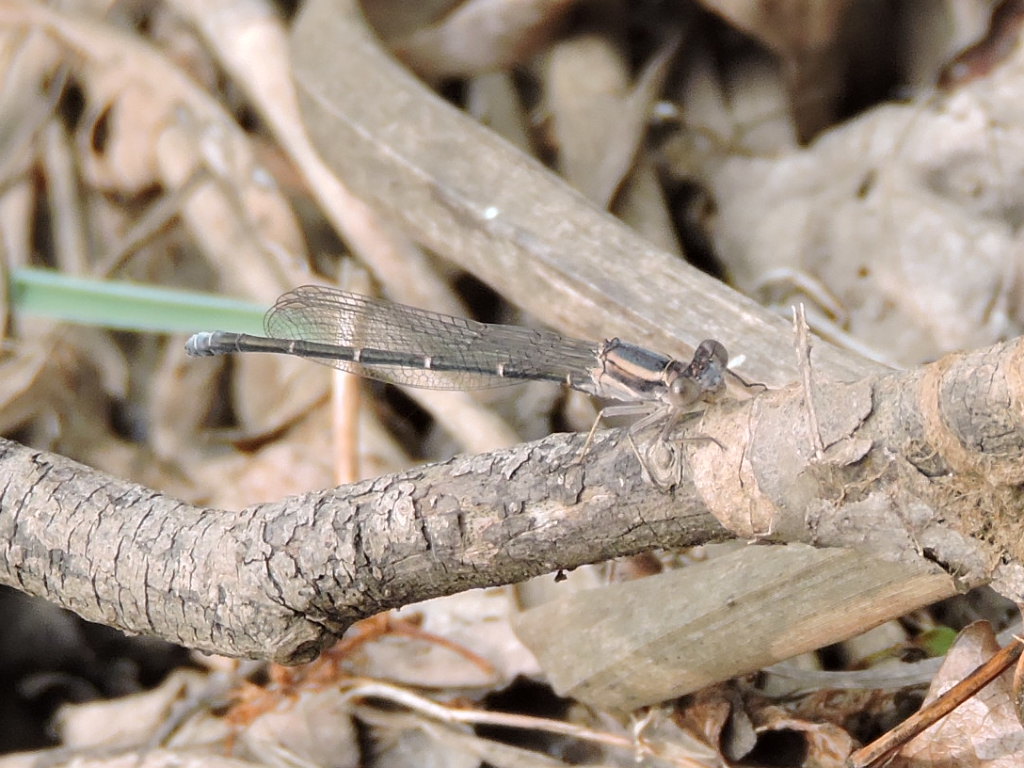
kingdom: Animalia
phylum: Arthropoda
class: Insecta
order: Odonata
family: Coenagrionidae
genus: Argia
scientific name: Argia moesta
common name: Powdered dancer
